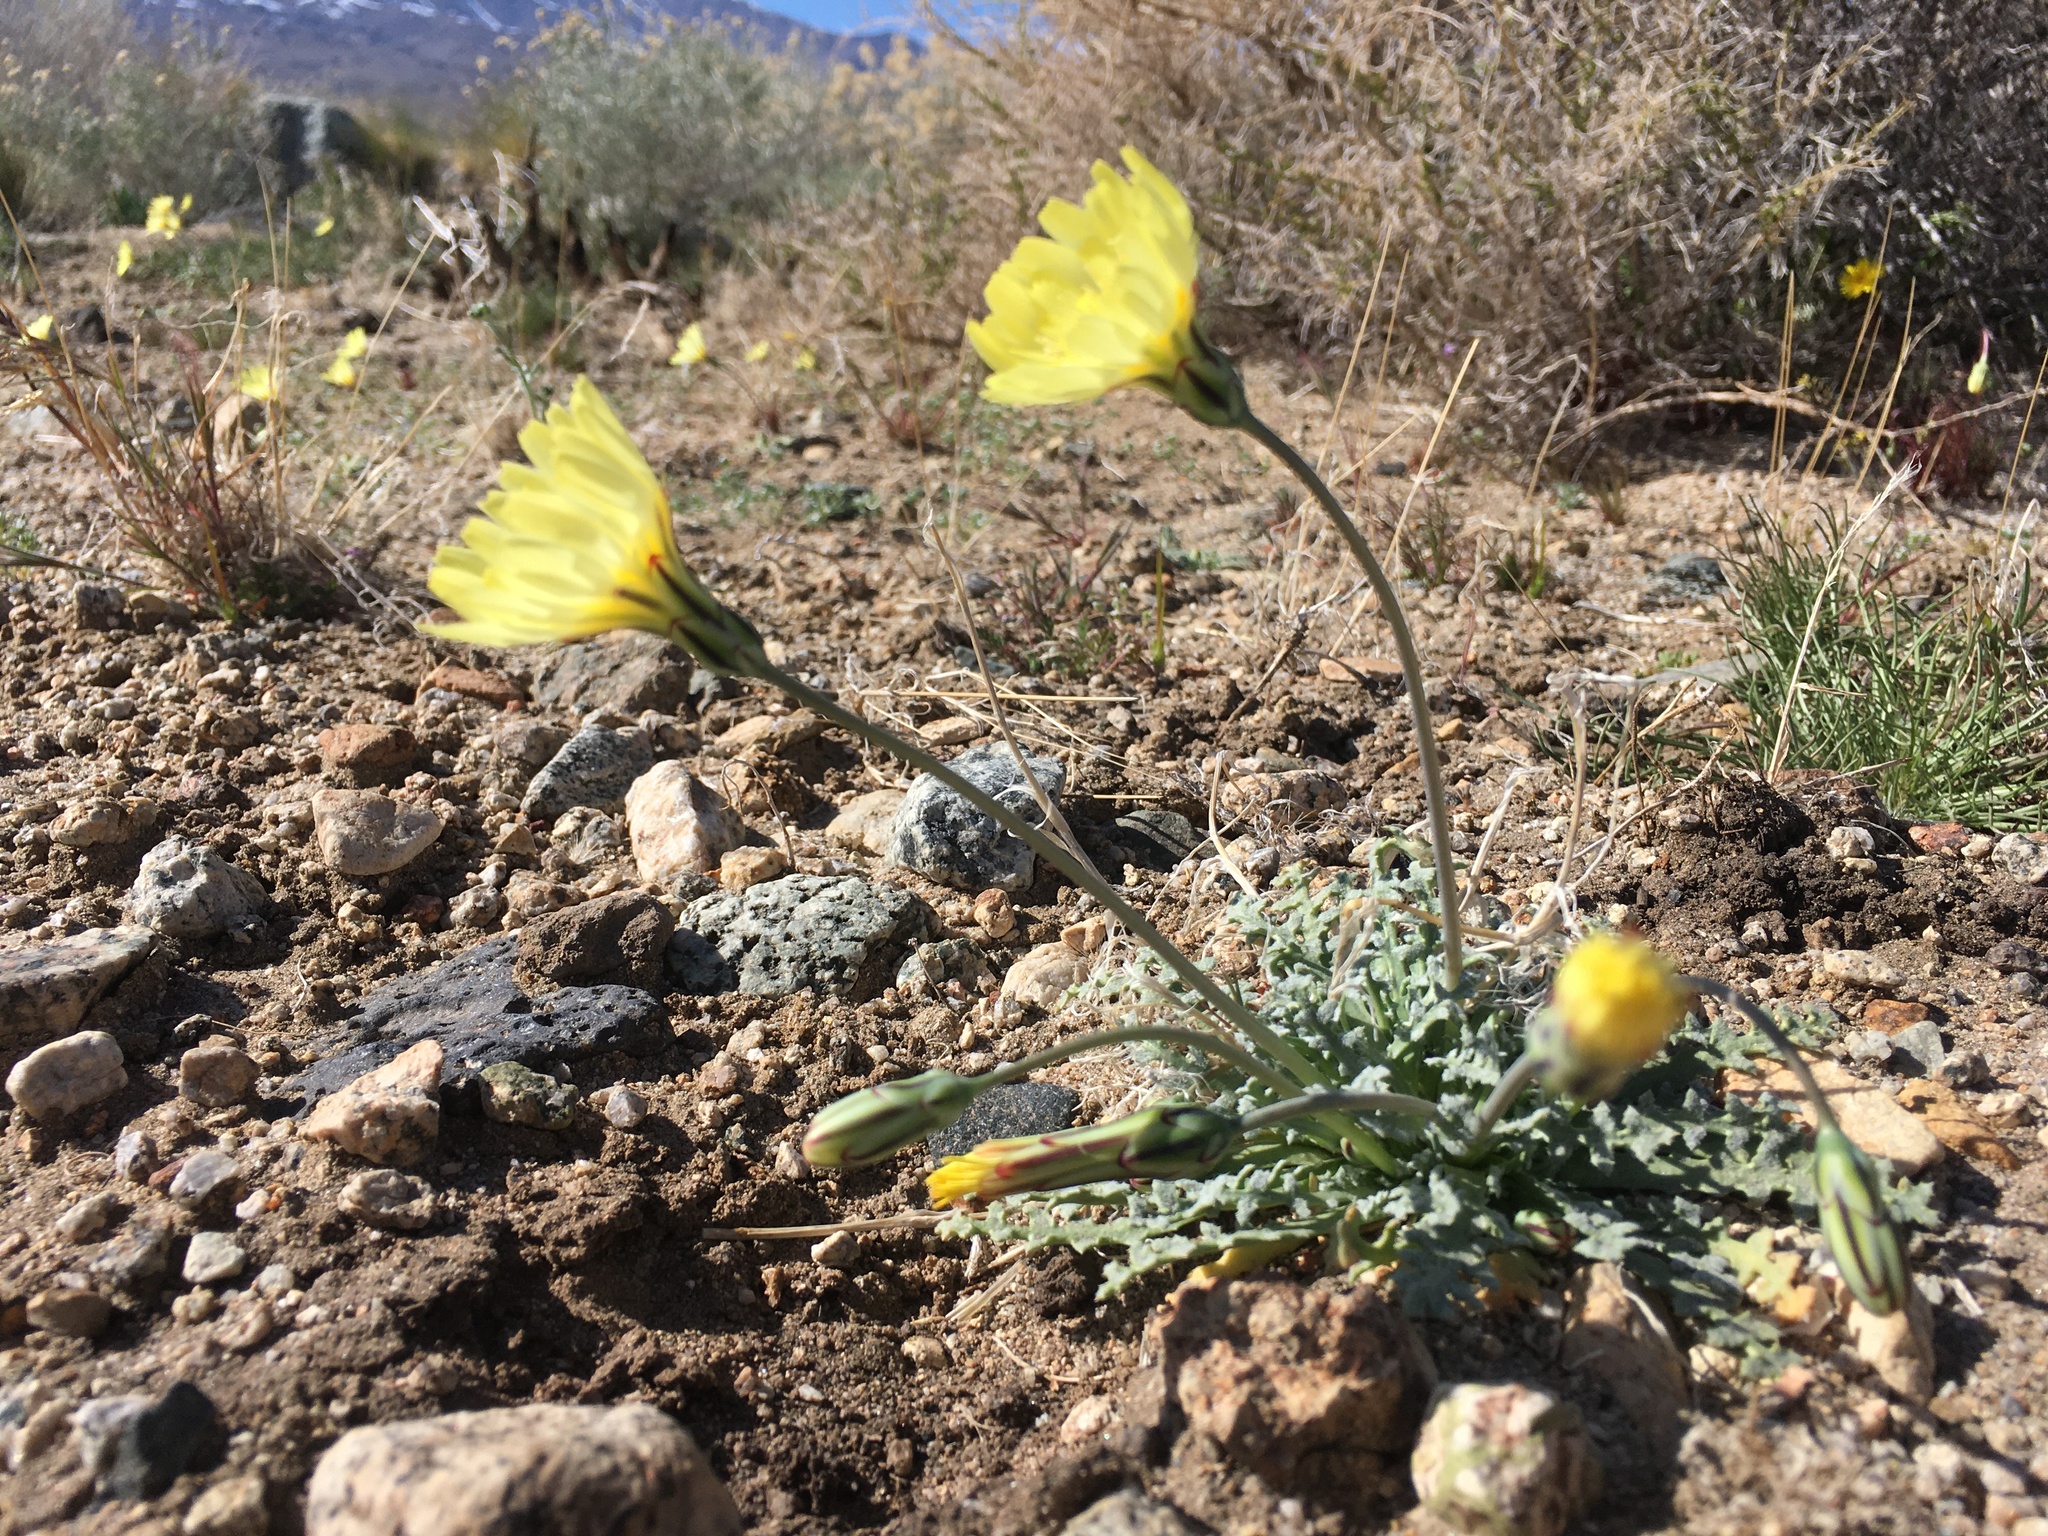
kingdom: Plantae
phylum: Tracheophyta
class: Magnoliopsida
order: Asterales
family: Asteraceae
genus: Anisocoma
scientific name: Anisocoma acaulis
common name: Scalebud
